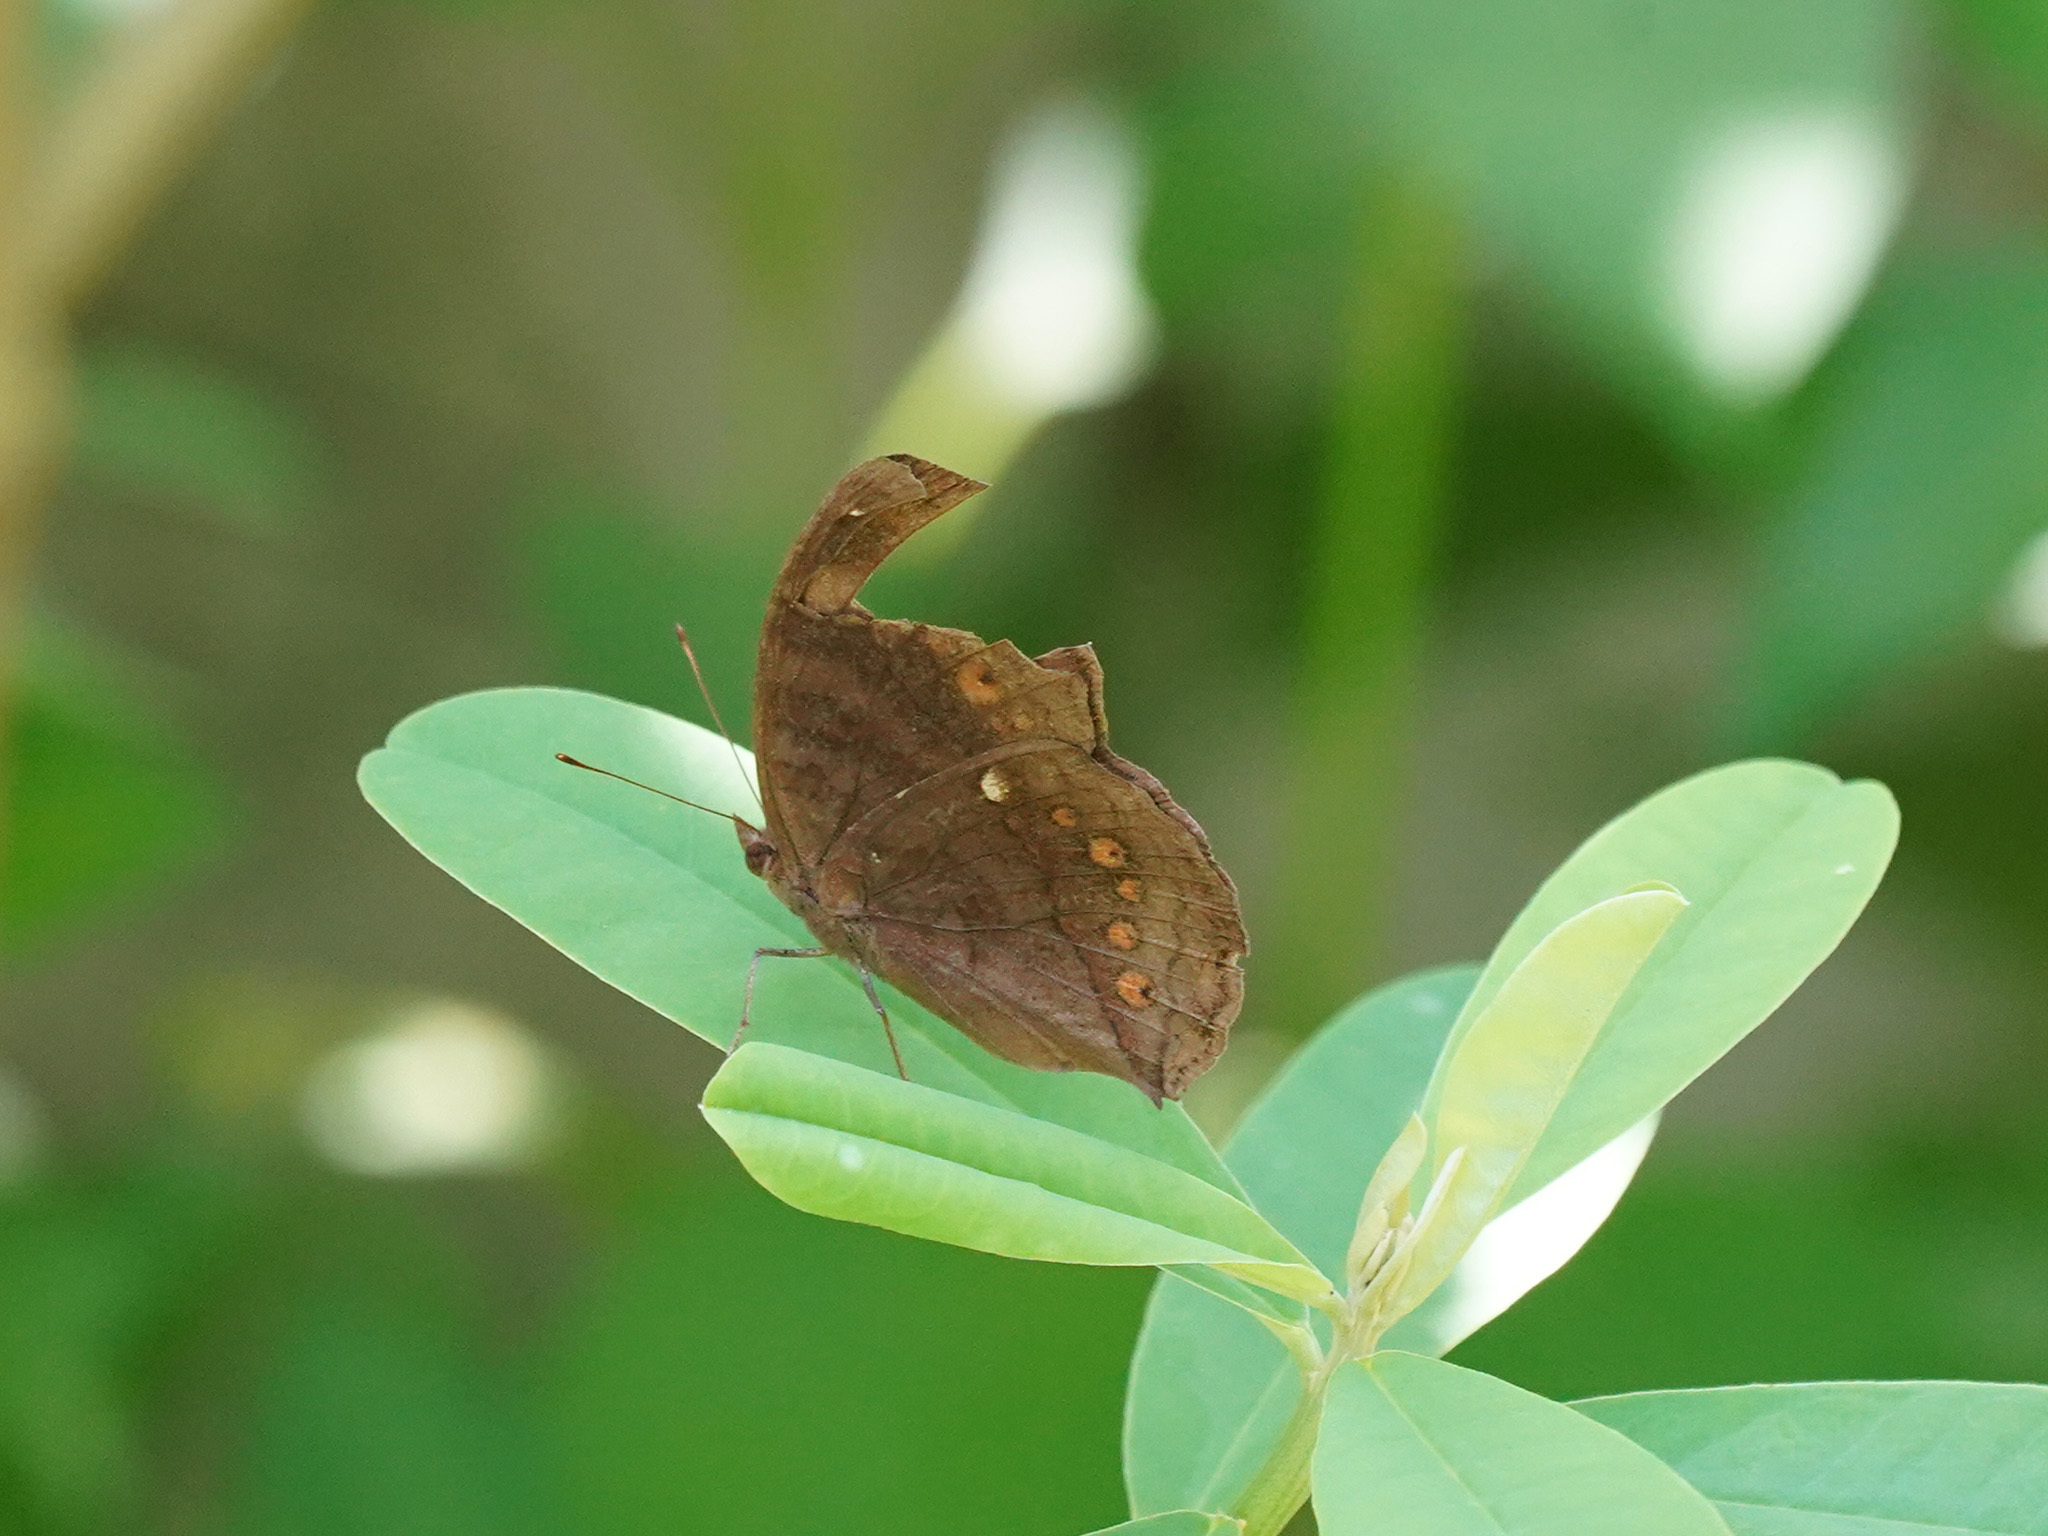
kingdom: Animalia
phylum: Arthropoda
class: Insecta
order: Lepidoptera
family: Nymphalidae
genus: Junonia
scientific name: Junonia hedonia
